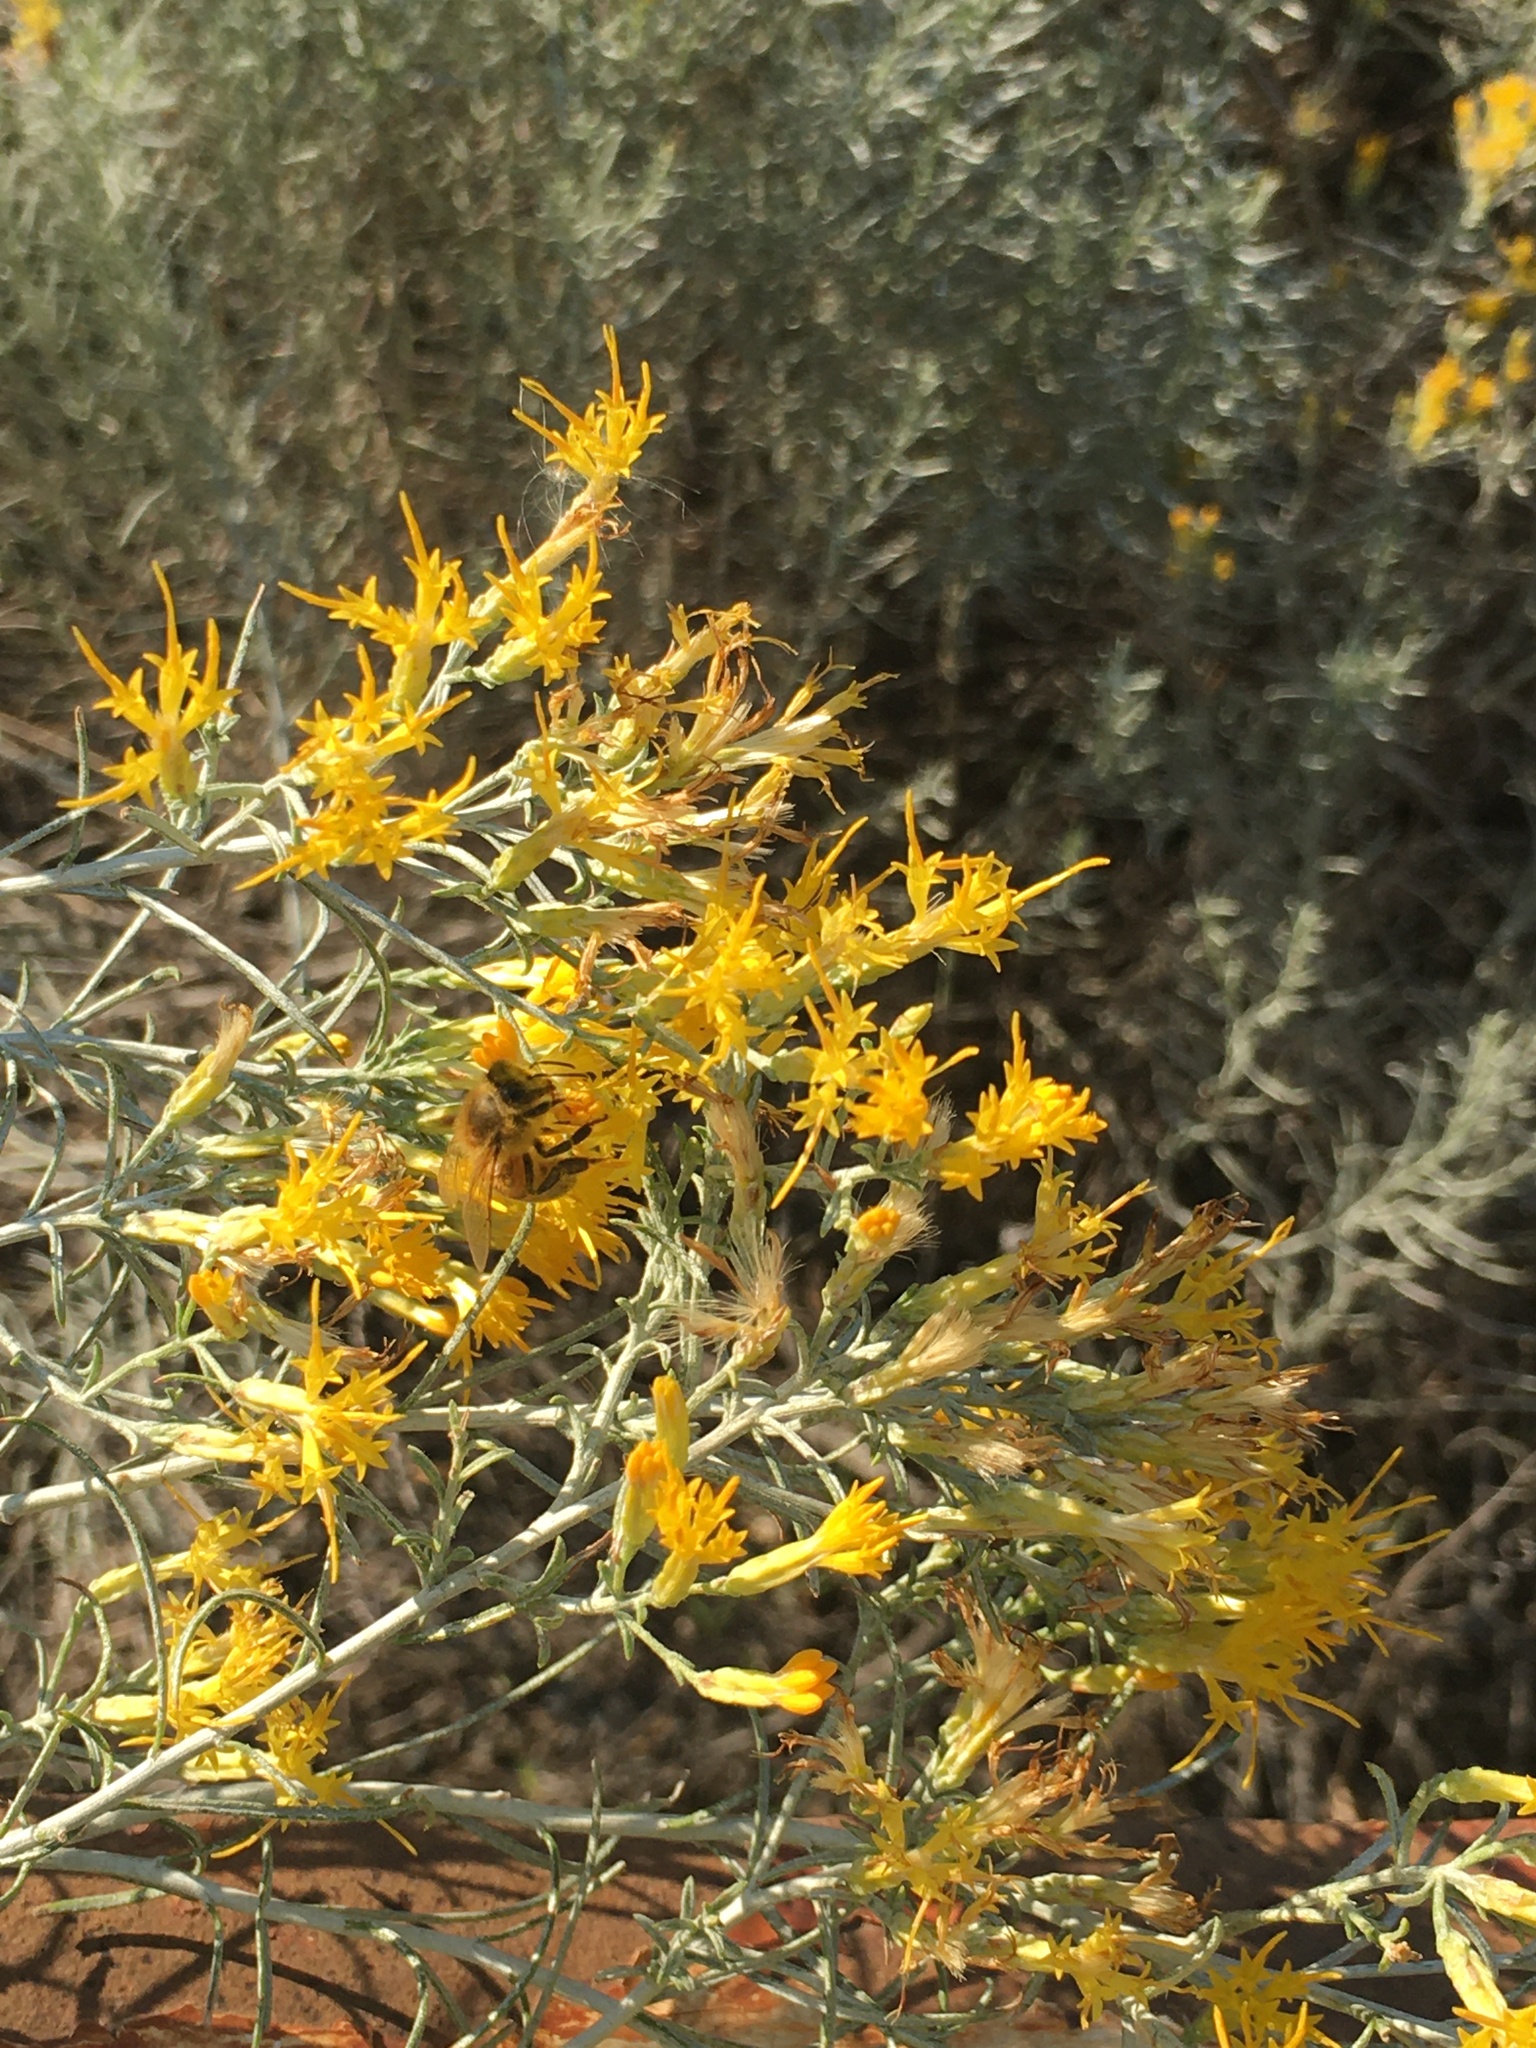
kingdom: Animalia
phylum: Arthropoda
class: Insecta
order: Hymenoptera
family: Apidae
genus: Apis
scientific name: Apis mellifera
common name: Honey bee
